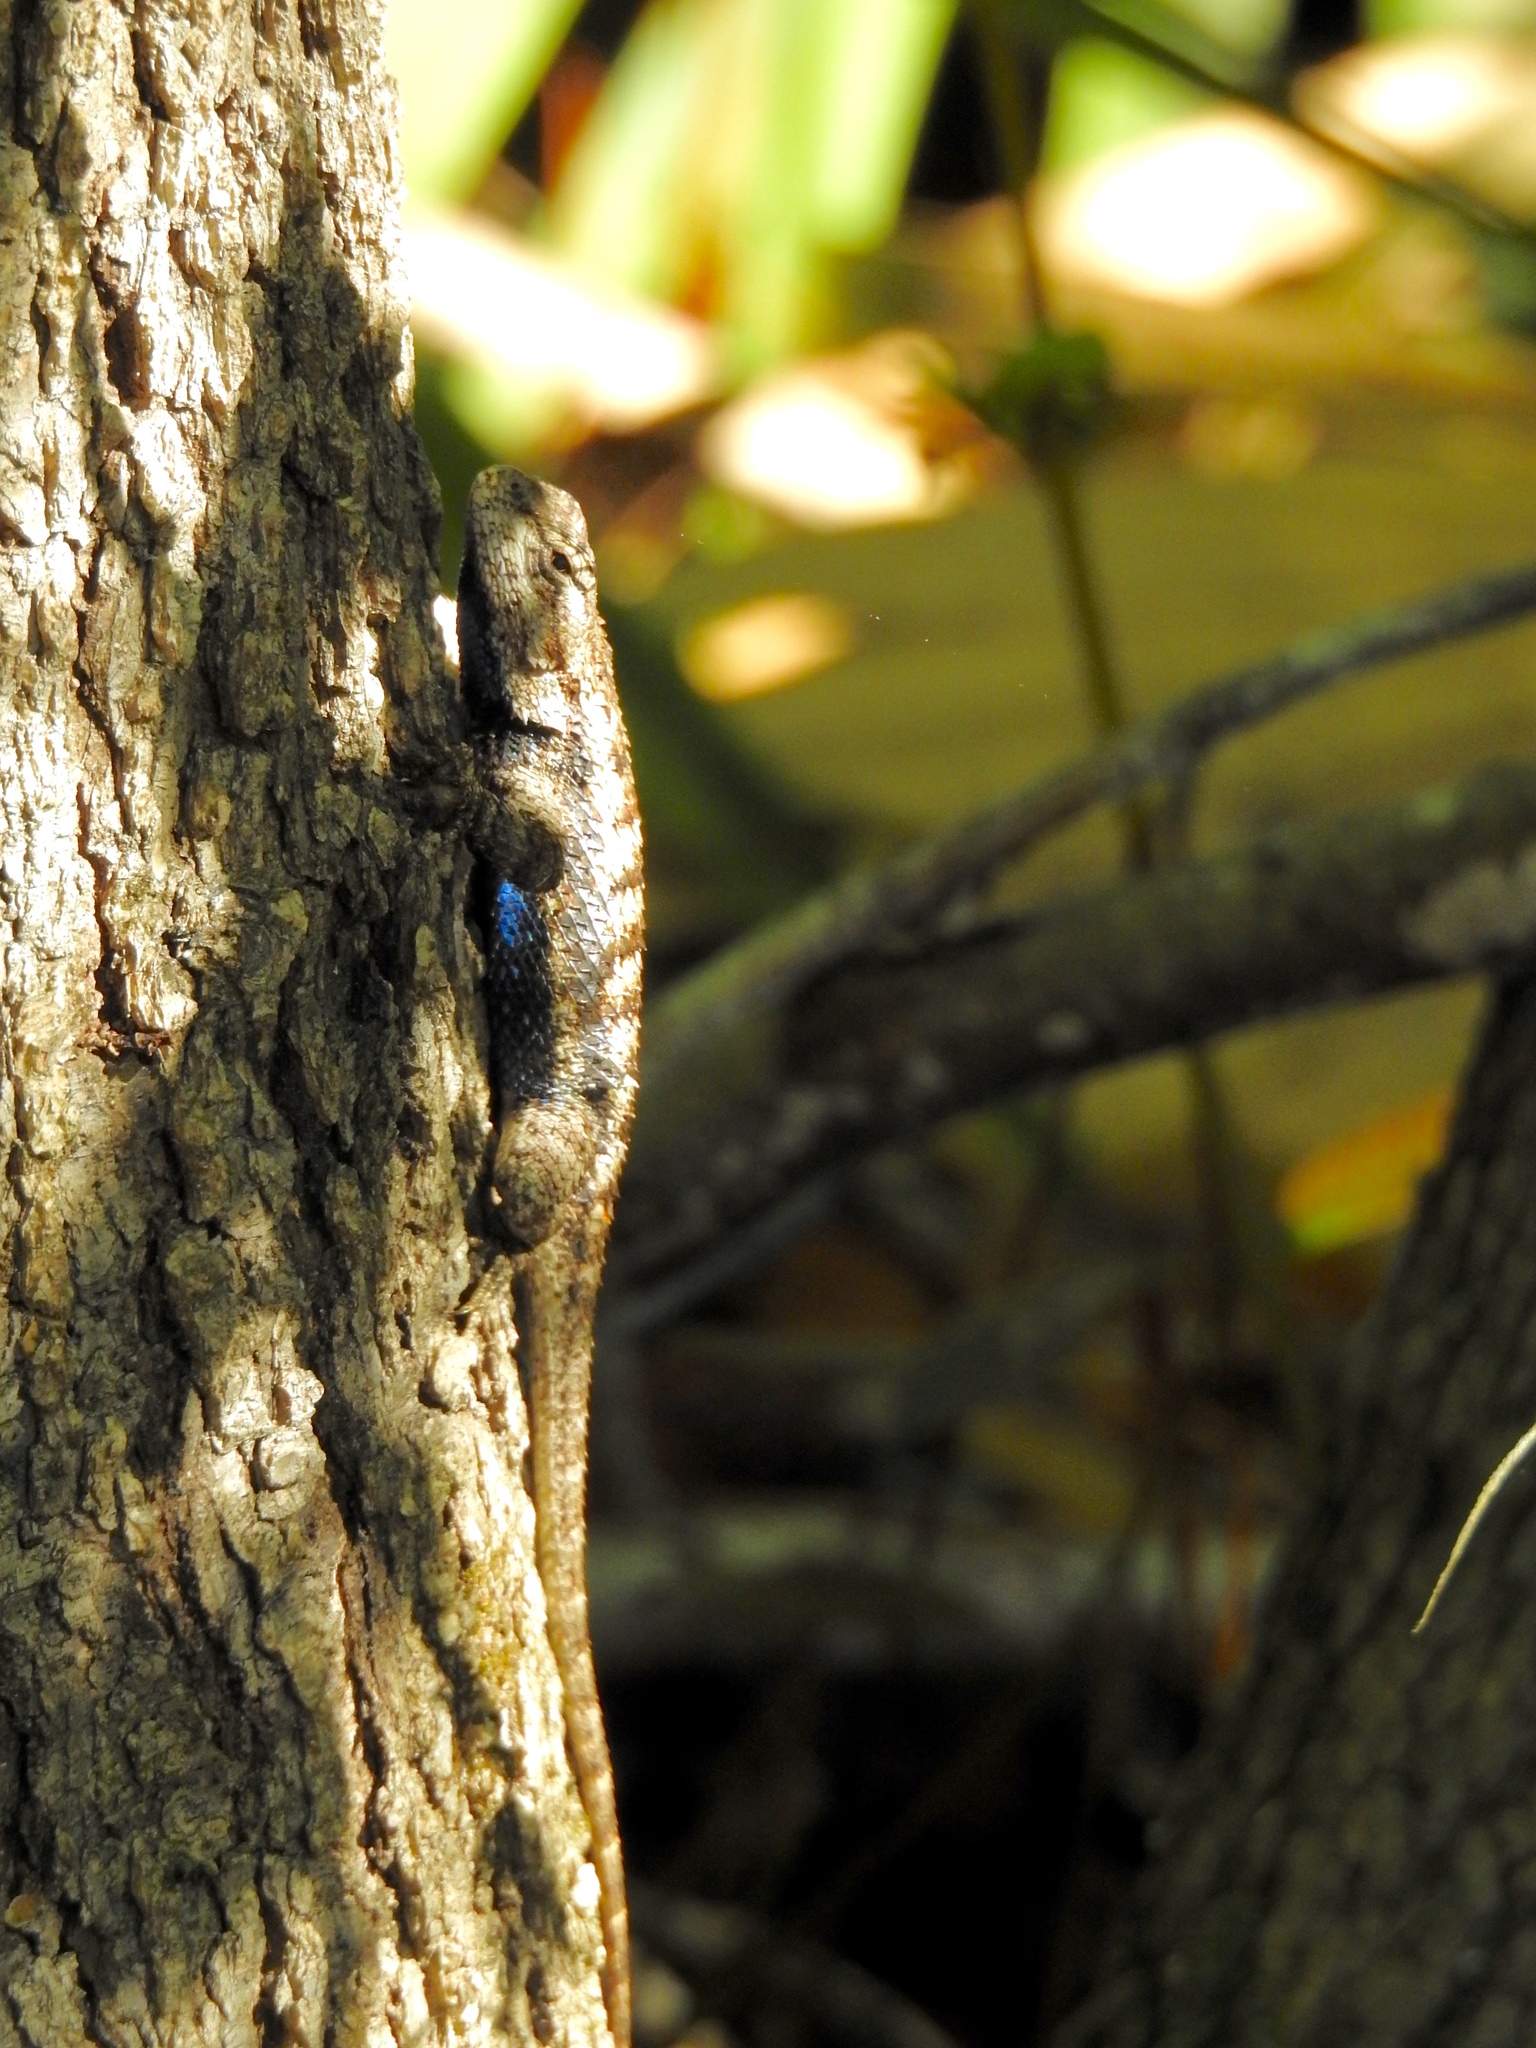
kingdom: Animalia
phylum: Chordata
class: Squamata
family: Phrynosomatidae
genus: Sceloporus
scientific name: Sceloporus undulatus
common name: Eastern fence lizard
